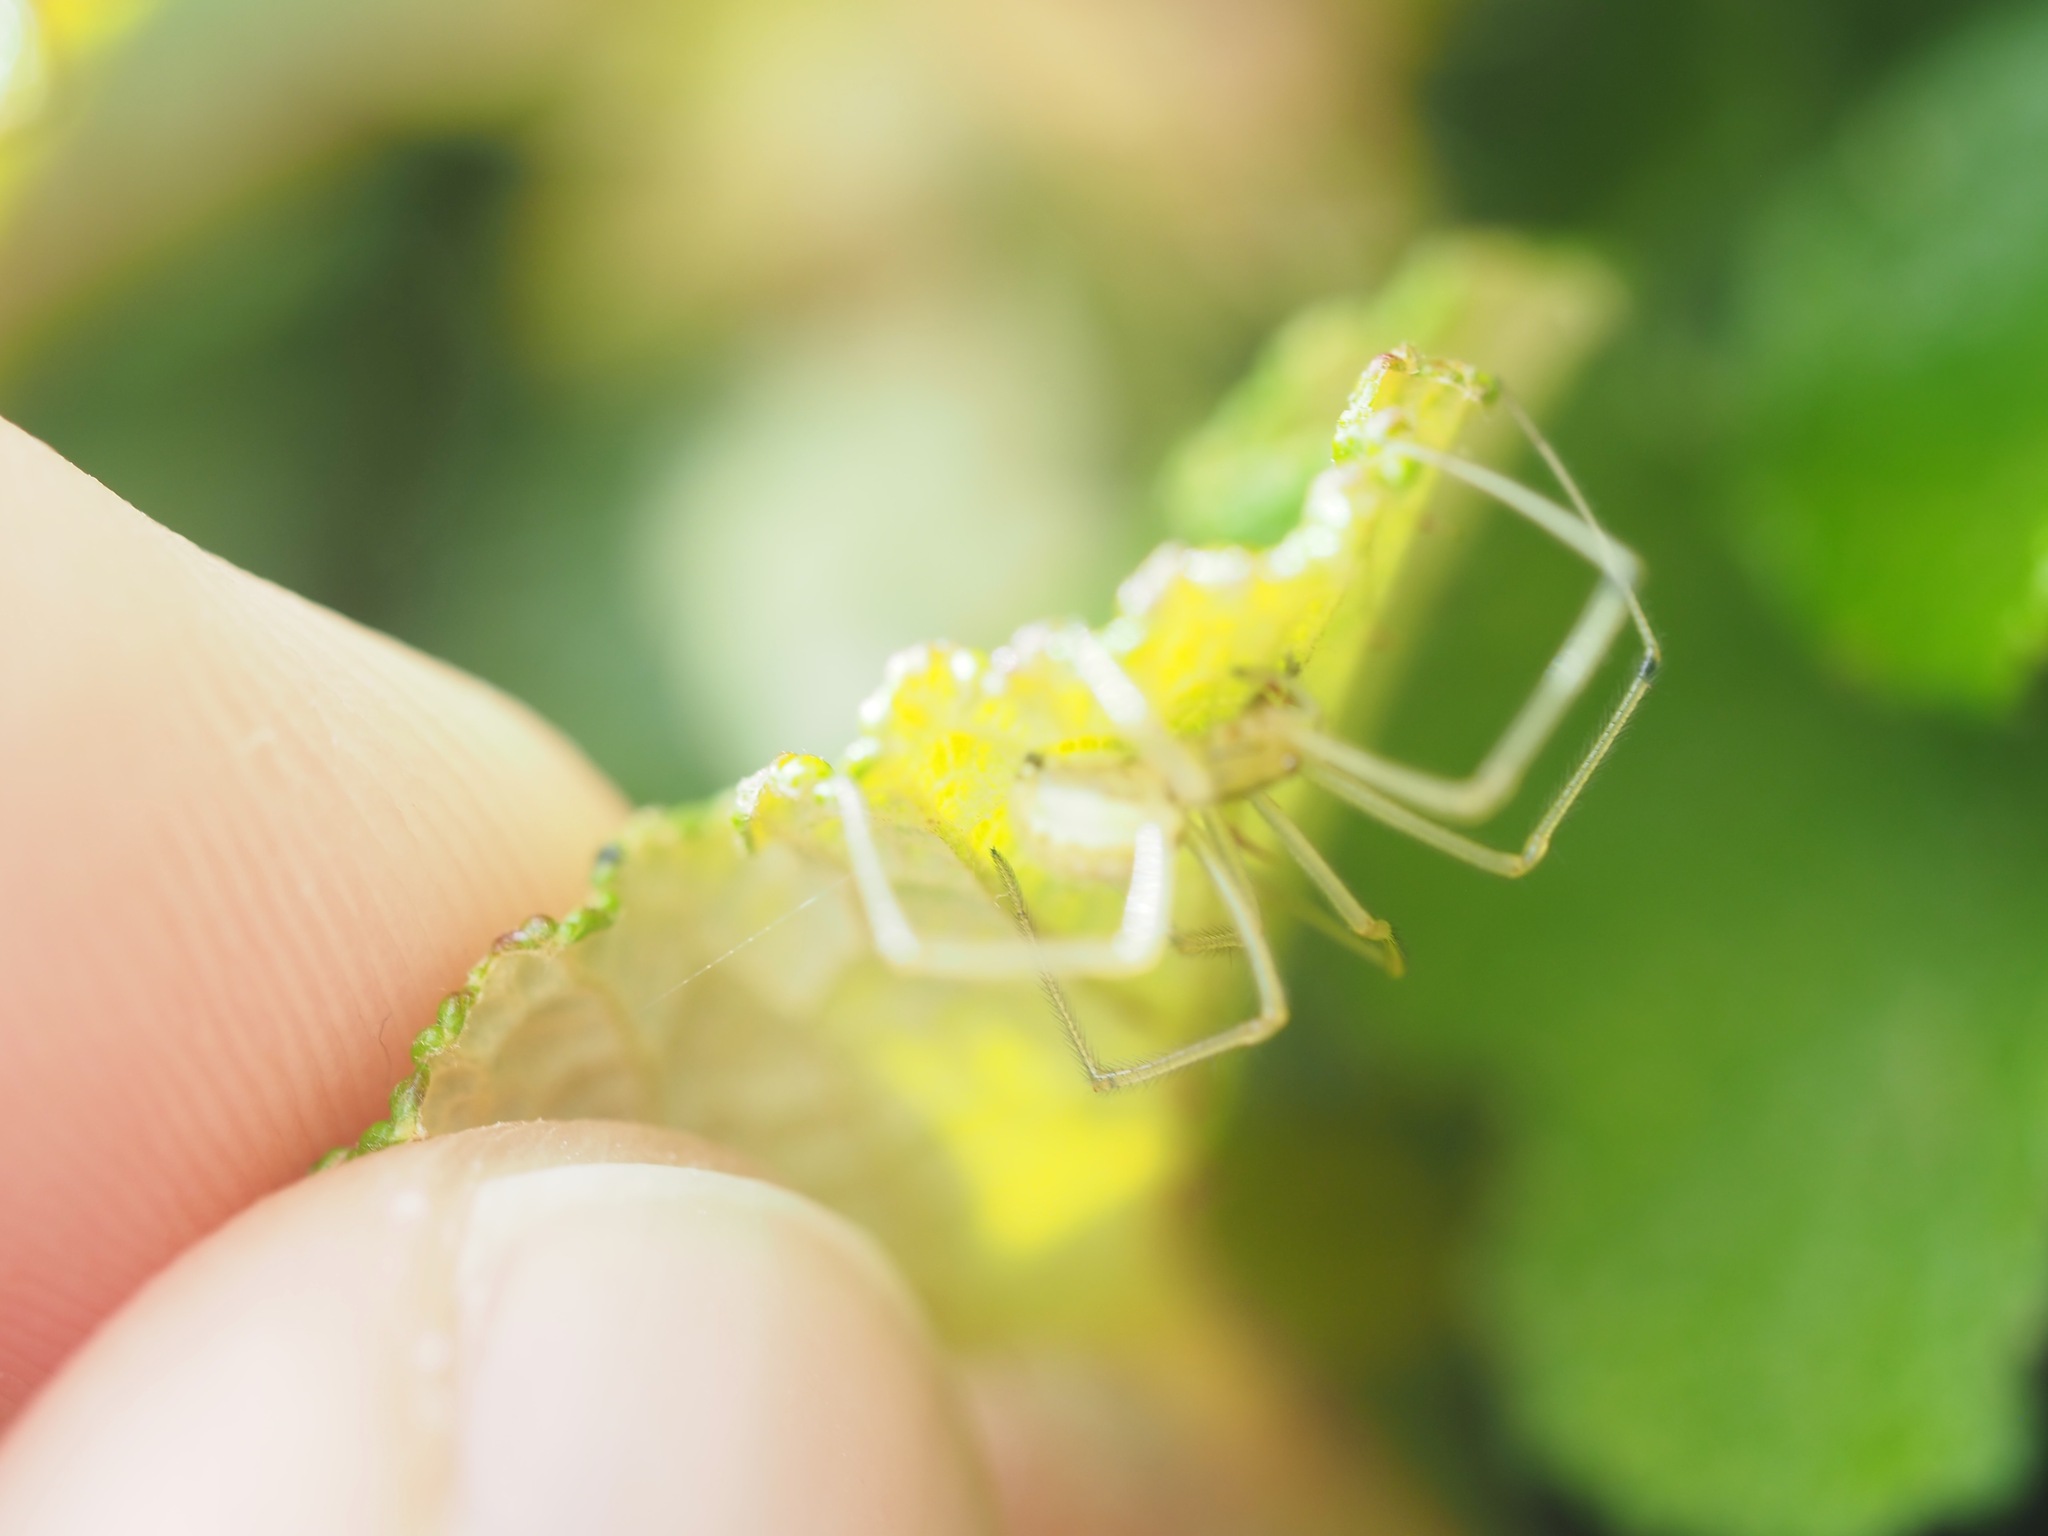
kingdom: Animalia
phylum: Arthropoda
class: Arachnida
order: Araneae
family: Theridiidae
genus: Enoplognatha
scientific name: Enoplognatha ovata
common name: Common candy-striped spider
